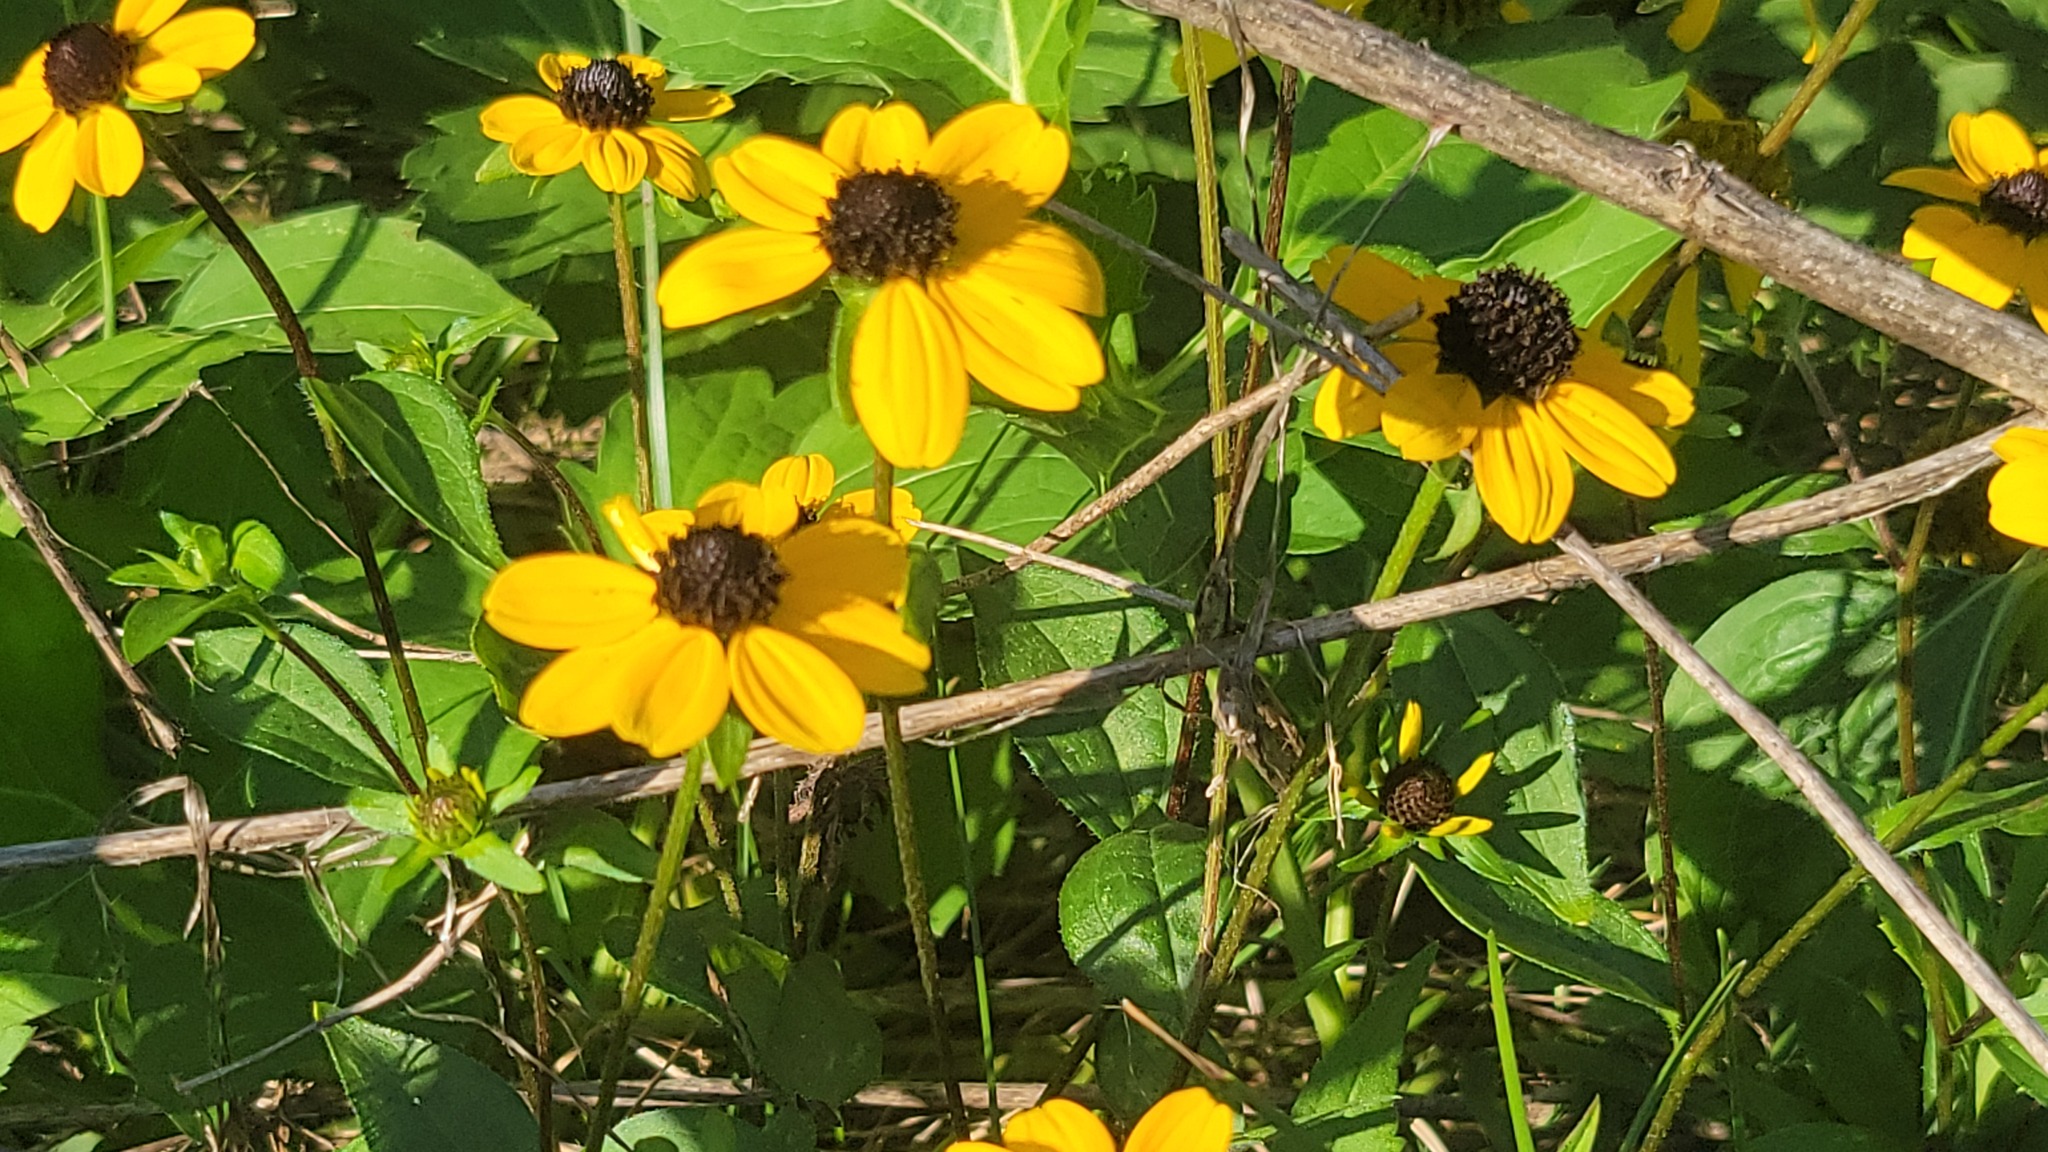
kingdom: Plantae
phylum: Tracheophyta
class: Magnoliopsida
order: Asterales
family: Asteraceae
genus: Rudbeckia
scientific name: Rudbeckia triloba
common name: Thin-leaved coneflower
